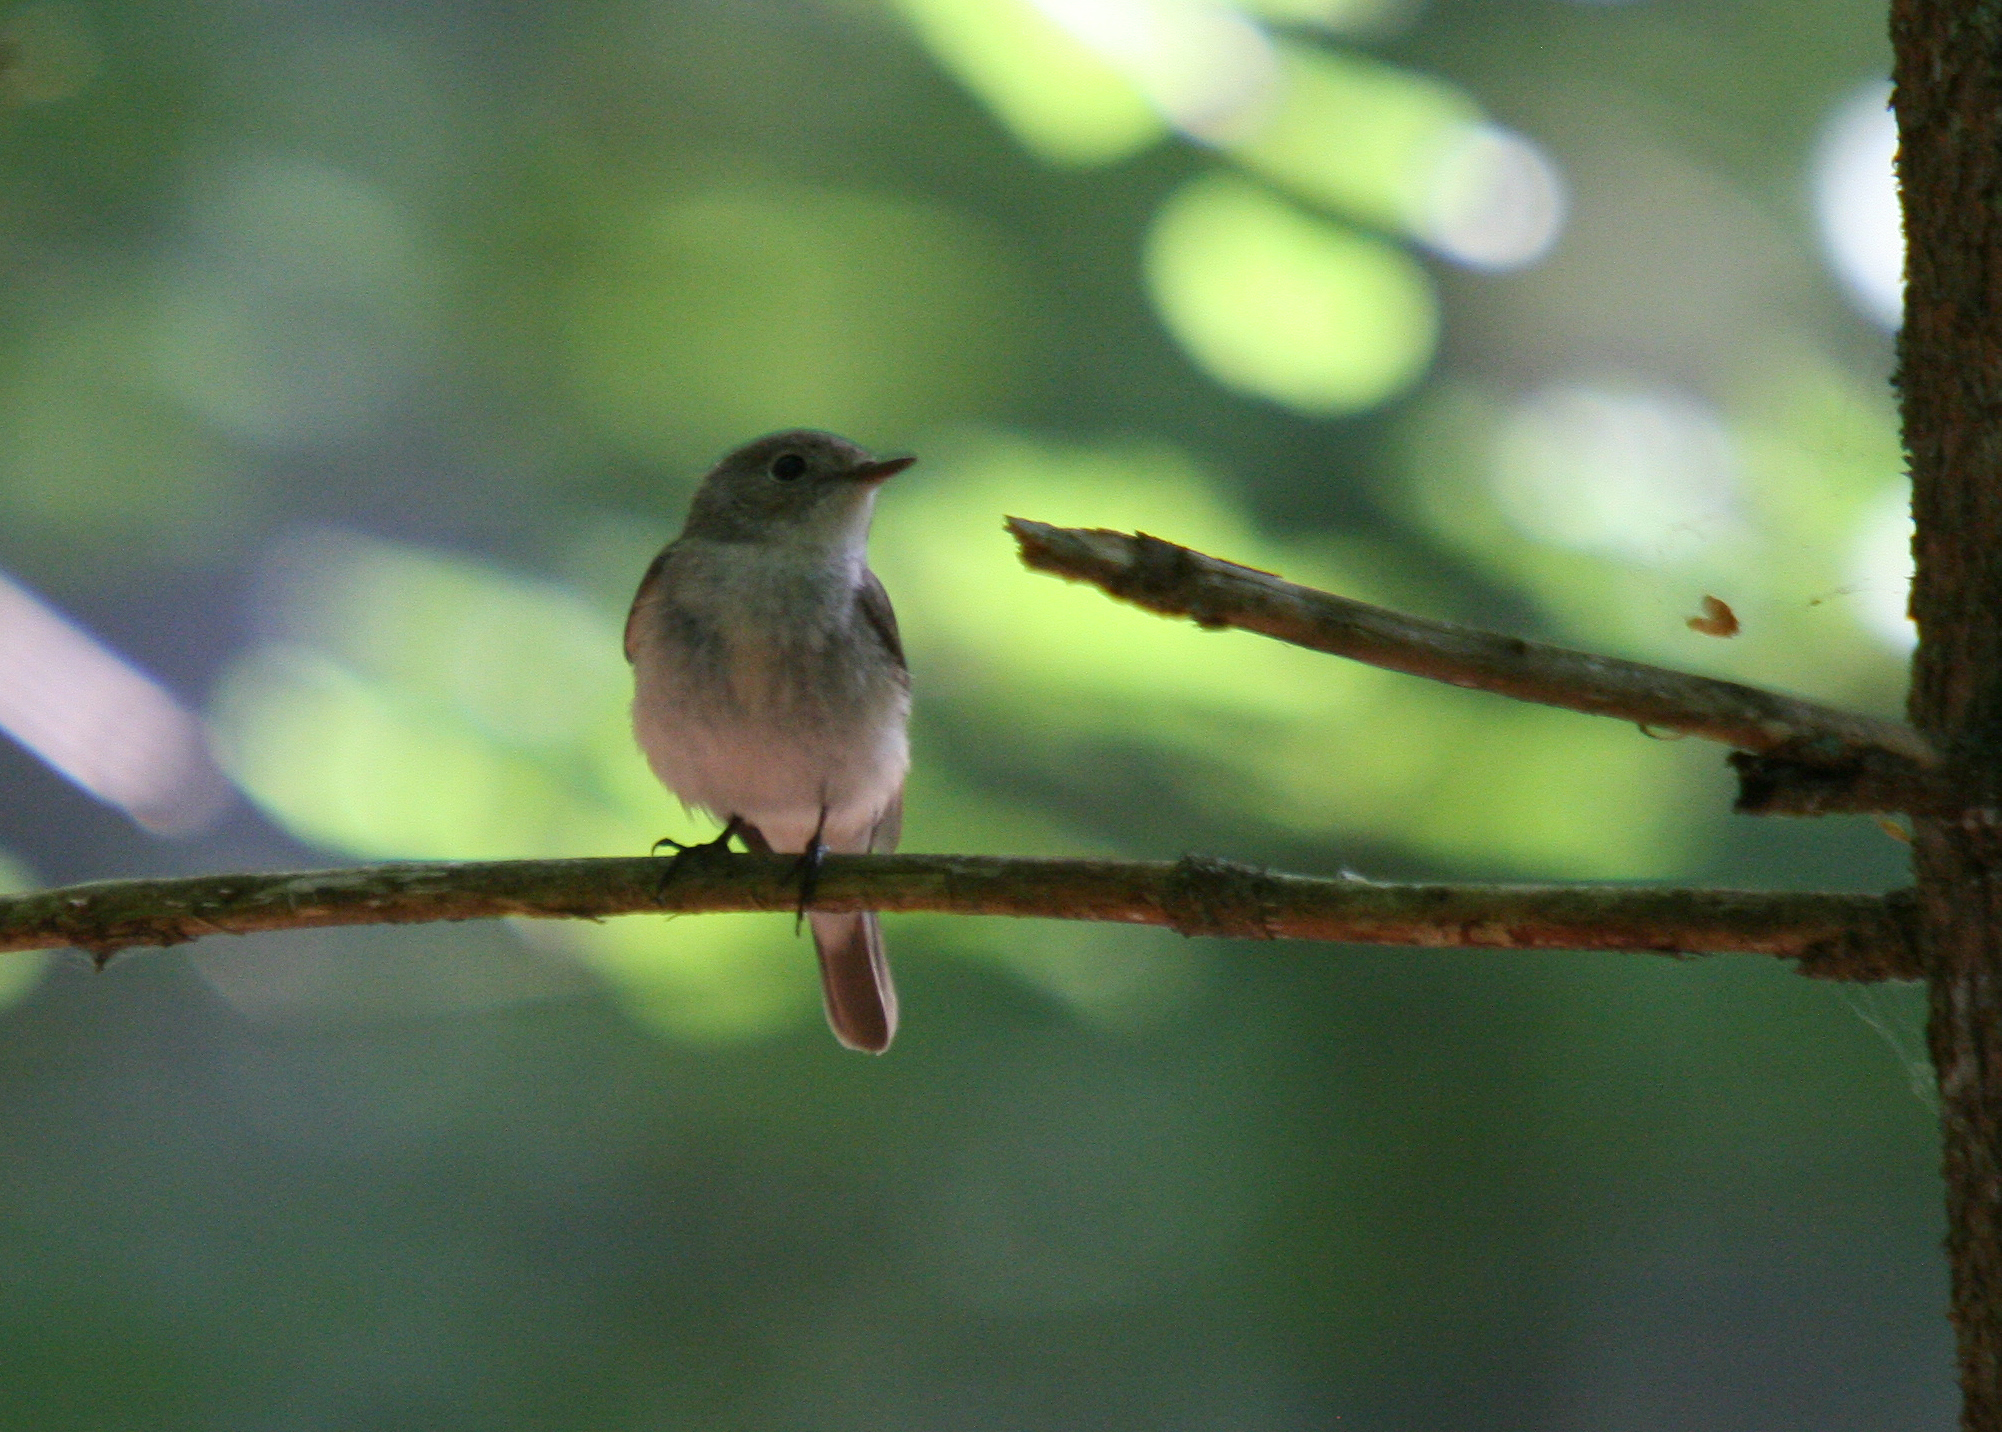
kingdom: Animalia
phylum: Chordata
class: Aves
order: Passeriformes
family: Muscicapidae
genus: Ficedula
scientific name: Ficedula parva
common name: Red-breasted flycatcher
